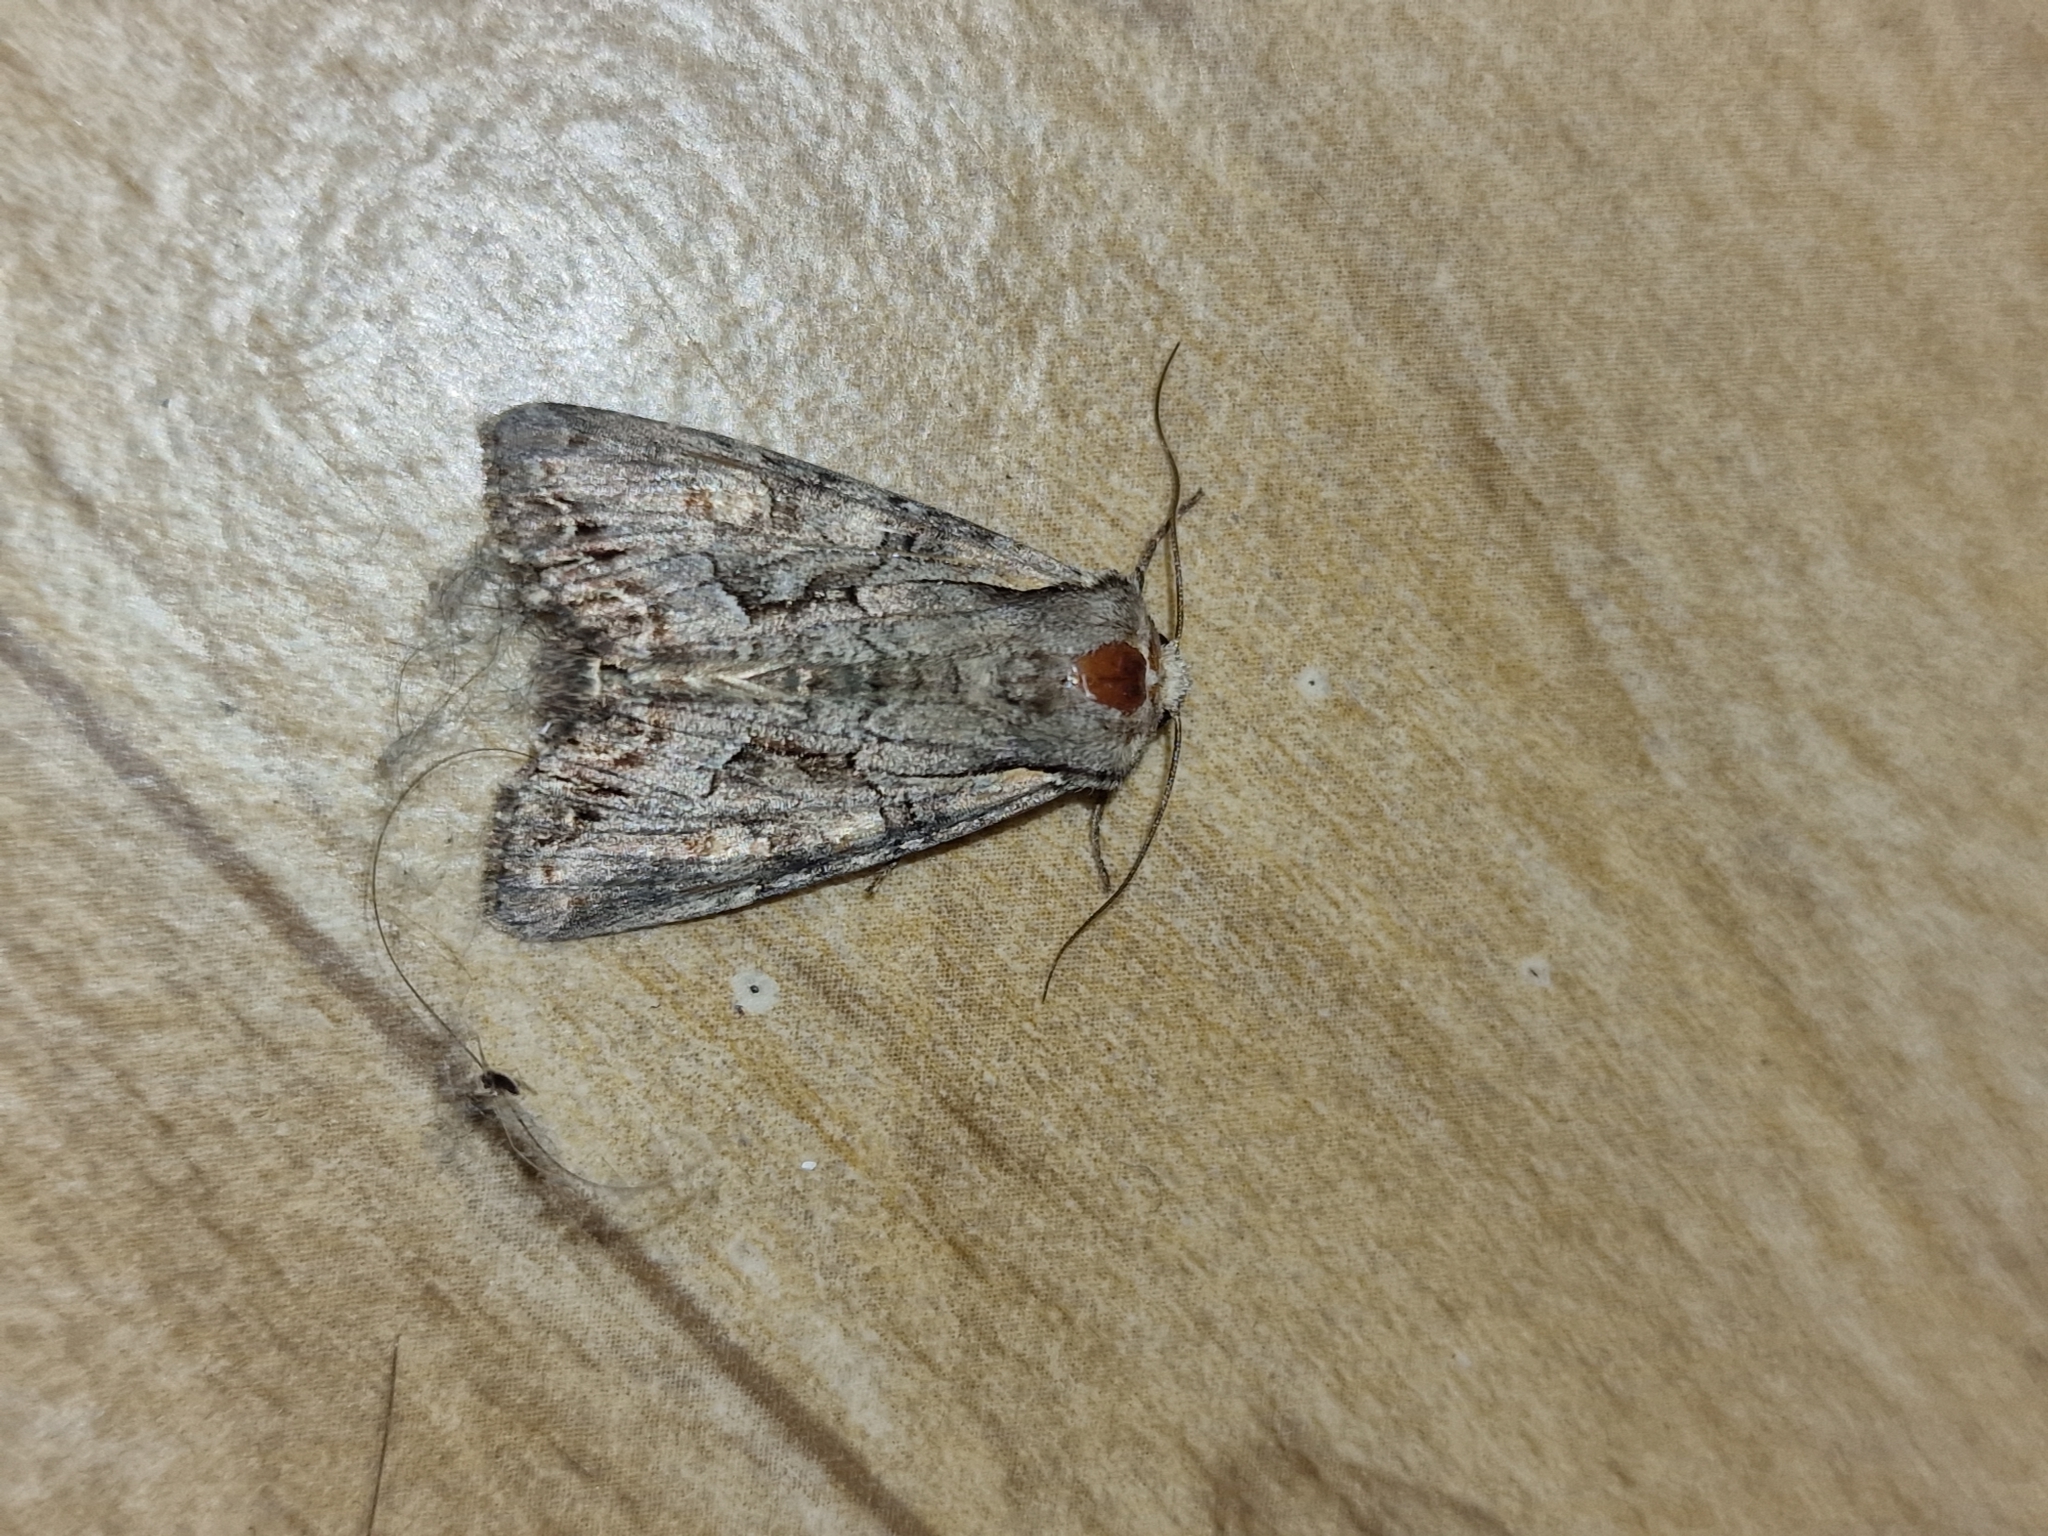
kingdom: Animalia
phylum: Arthropoda
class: Insecta
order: Lepidoptera
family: Noctuidae
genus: Lacanobia
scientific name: Lacanobia w-latinum
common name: Light brocade
